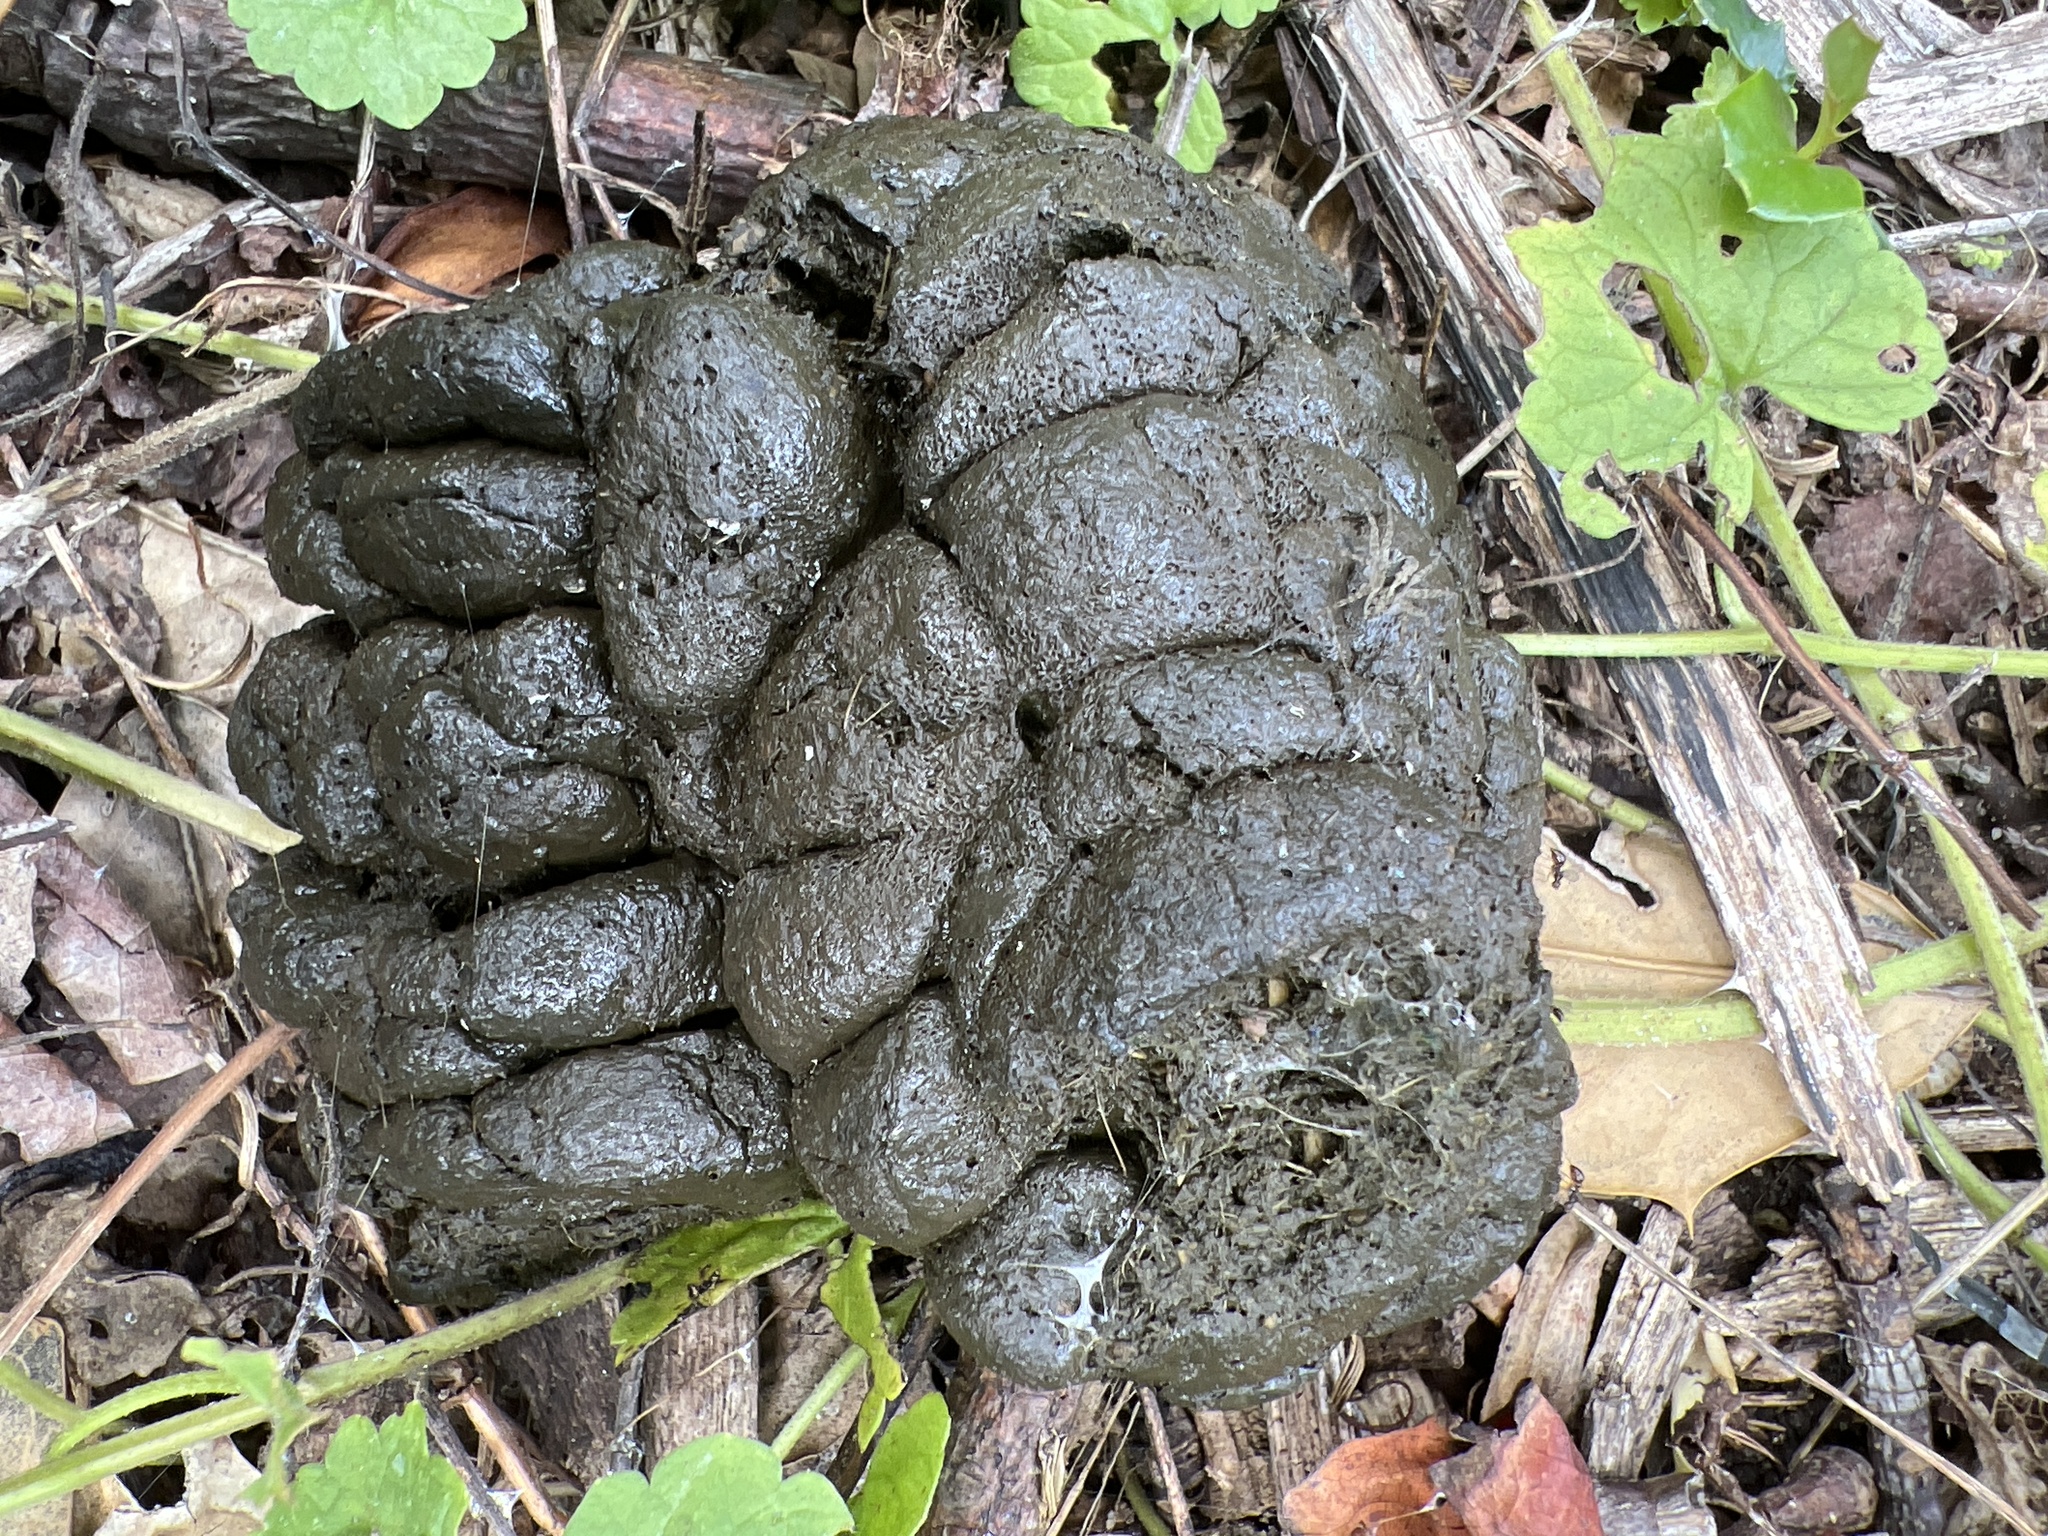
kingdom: Animalia
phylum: Chordata
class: Mammalia
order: Artiodactyla
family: Cervidae
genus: Odocoileus
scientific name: Odocoileus virginianus
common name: White-tailed deer
